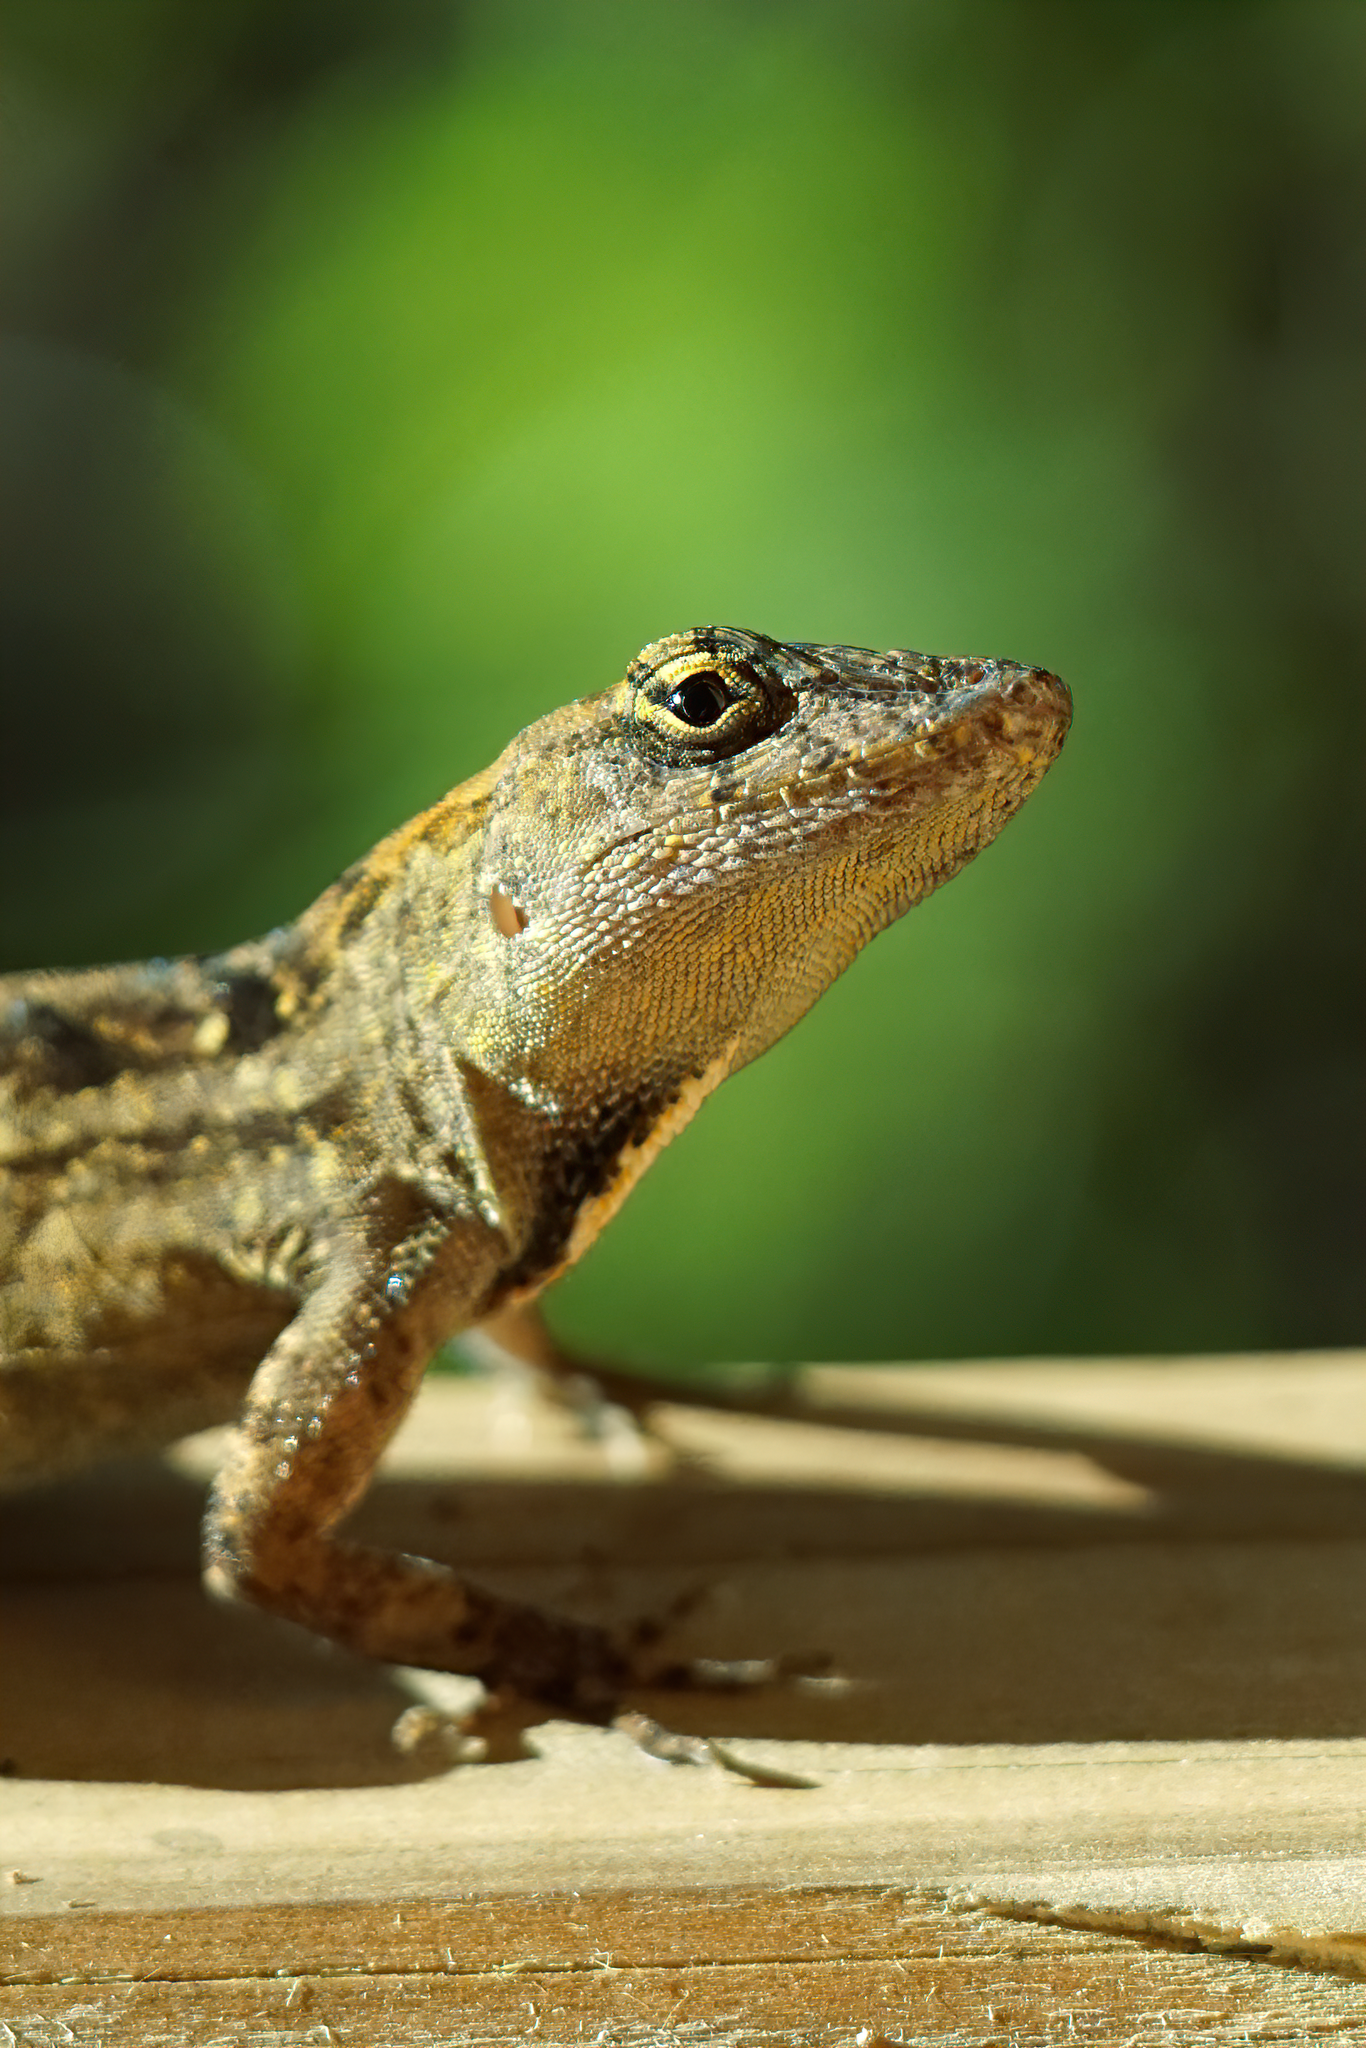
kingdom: Animalia
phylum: Chordata
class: Squamata
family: Dactyloidae
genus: Anolis
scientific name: Anolis sagrei
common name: Brown anole
